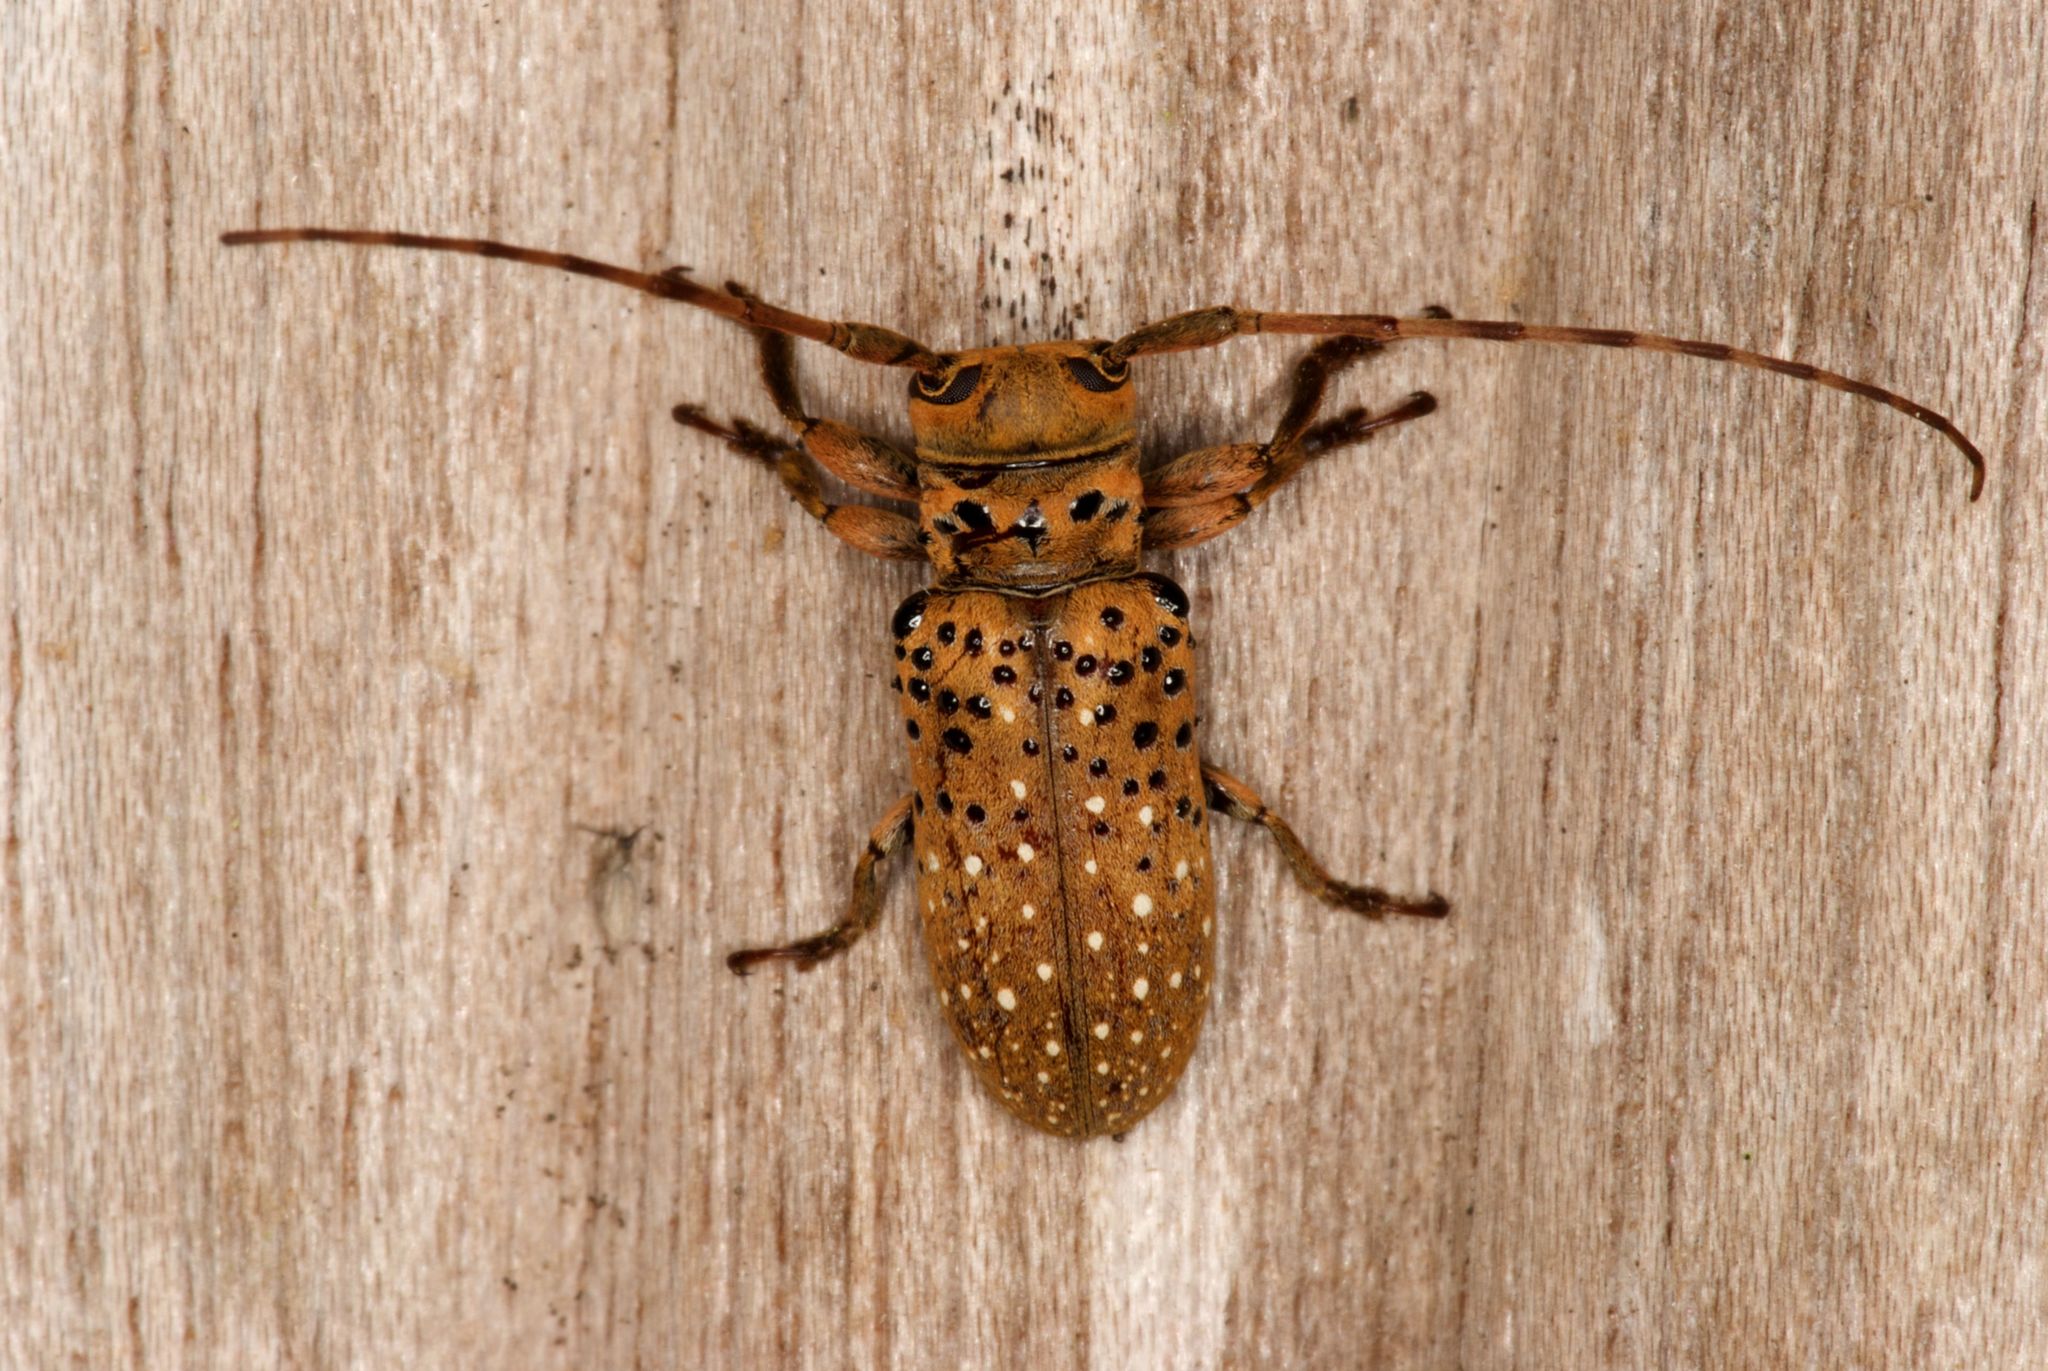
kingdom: Animalia
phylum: Arthropoda
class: Insecta
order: Coleoptera
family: Cerambycidae
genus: Oncideres
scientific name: Oncideres minuta
